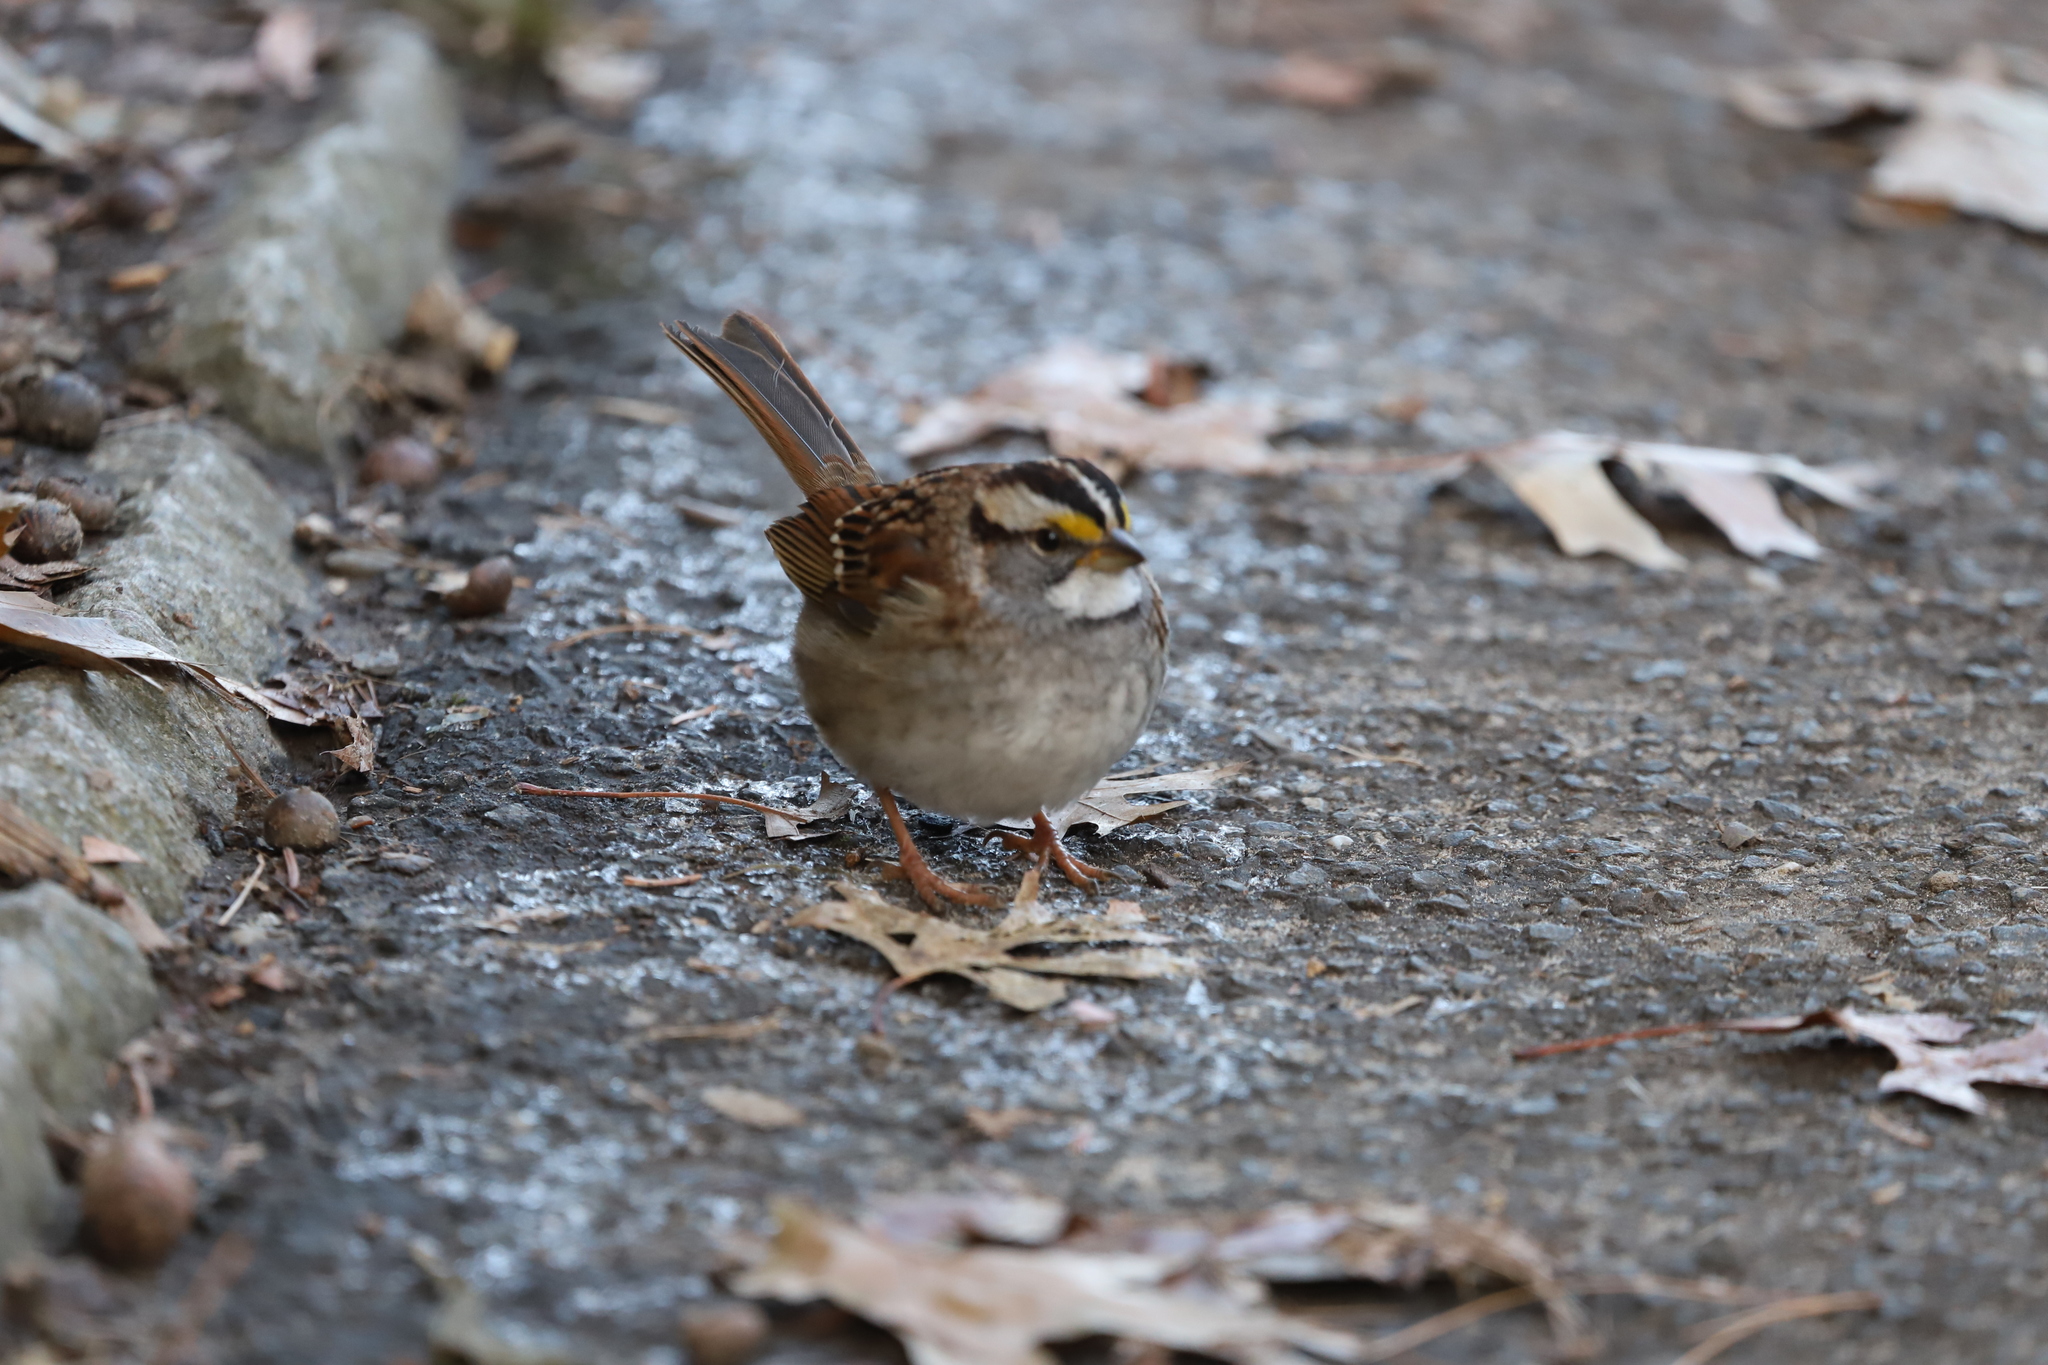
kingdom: Animalia
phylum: Chordata
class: Aves
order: Passeriformes
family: Passerellidae
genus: Zonotrichia
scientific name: Zonotrichia albicollis
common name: White-throated sparrow
